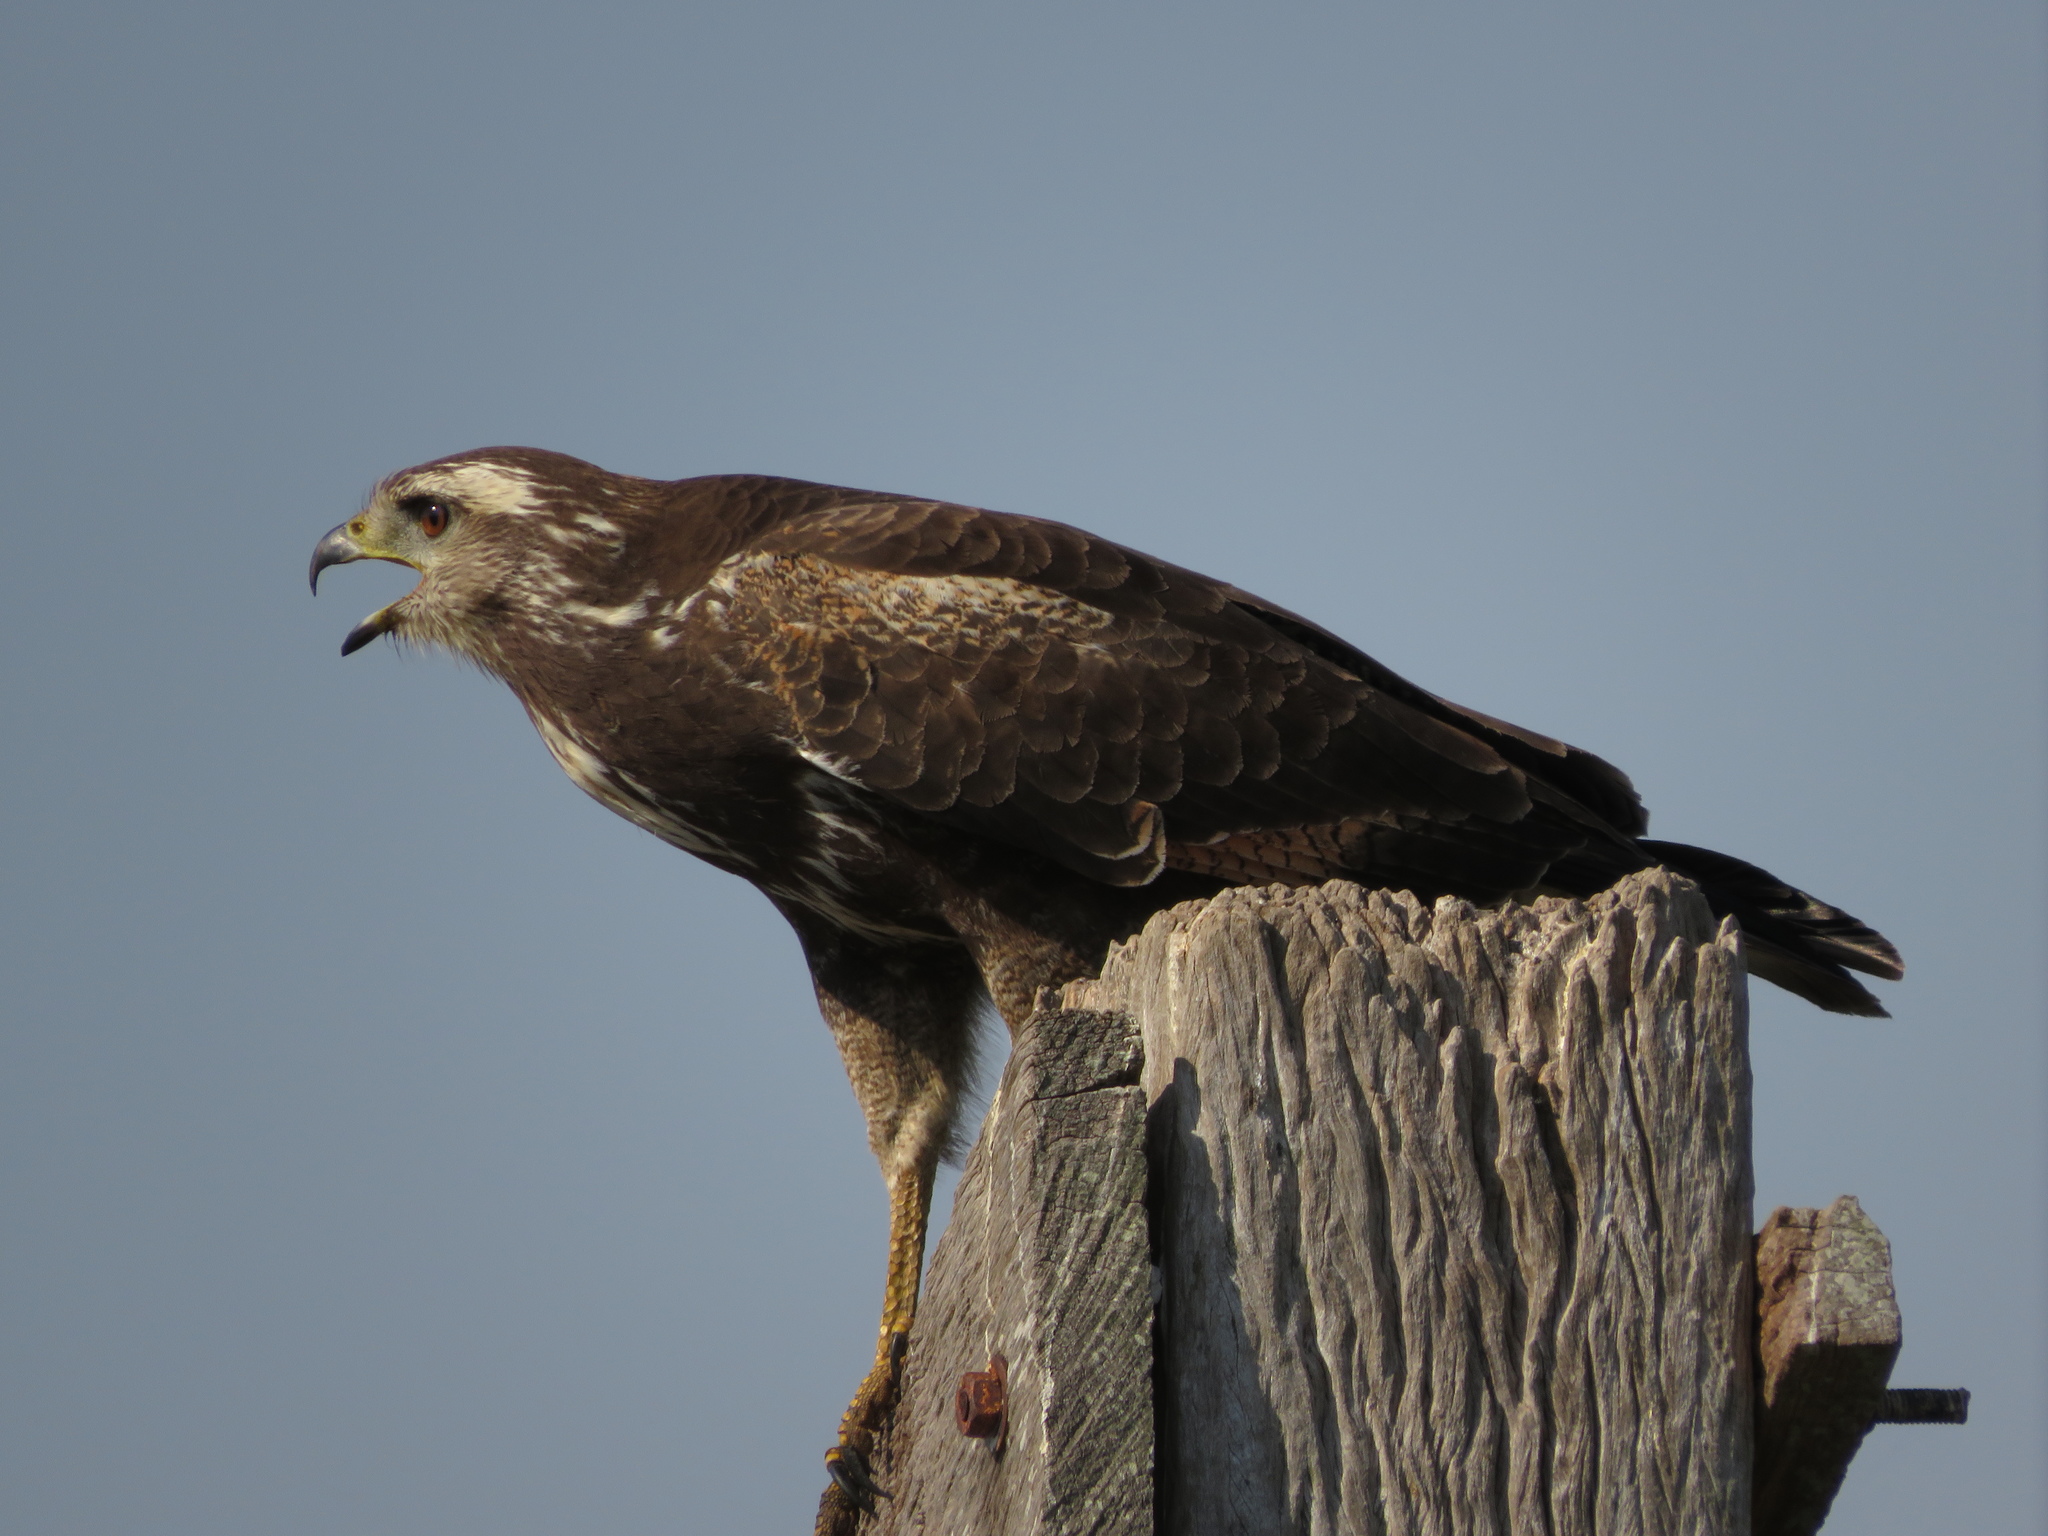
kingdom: Animalia
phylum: Chordata
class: Aves
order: Accipitriformes
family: Accipitridae
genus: Buteogallus
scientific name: Buteogallus meridionalis
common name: Savanna hawk
